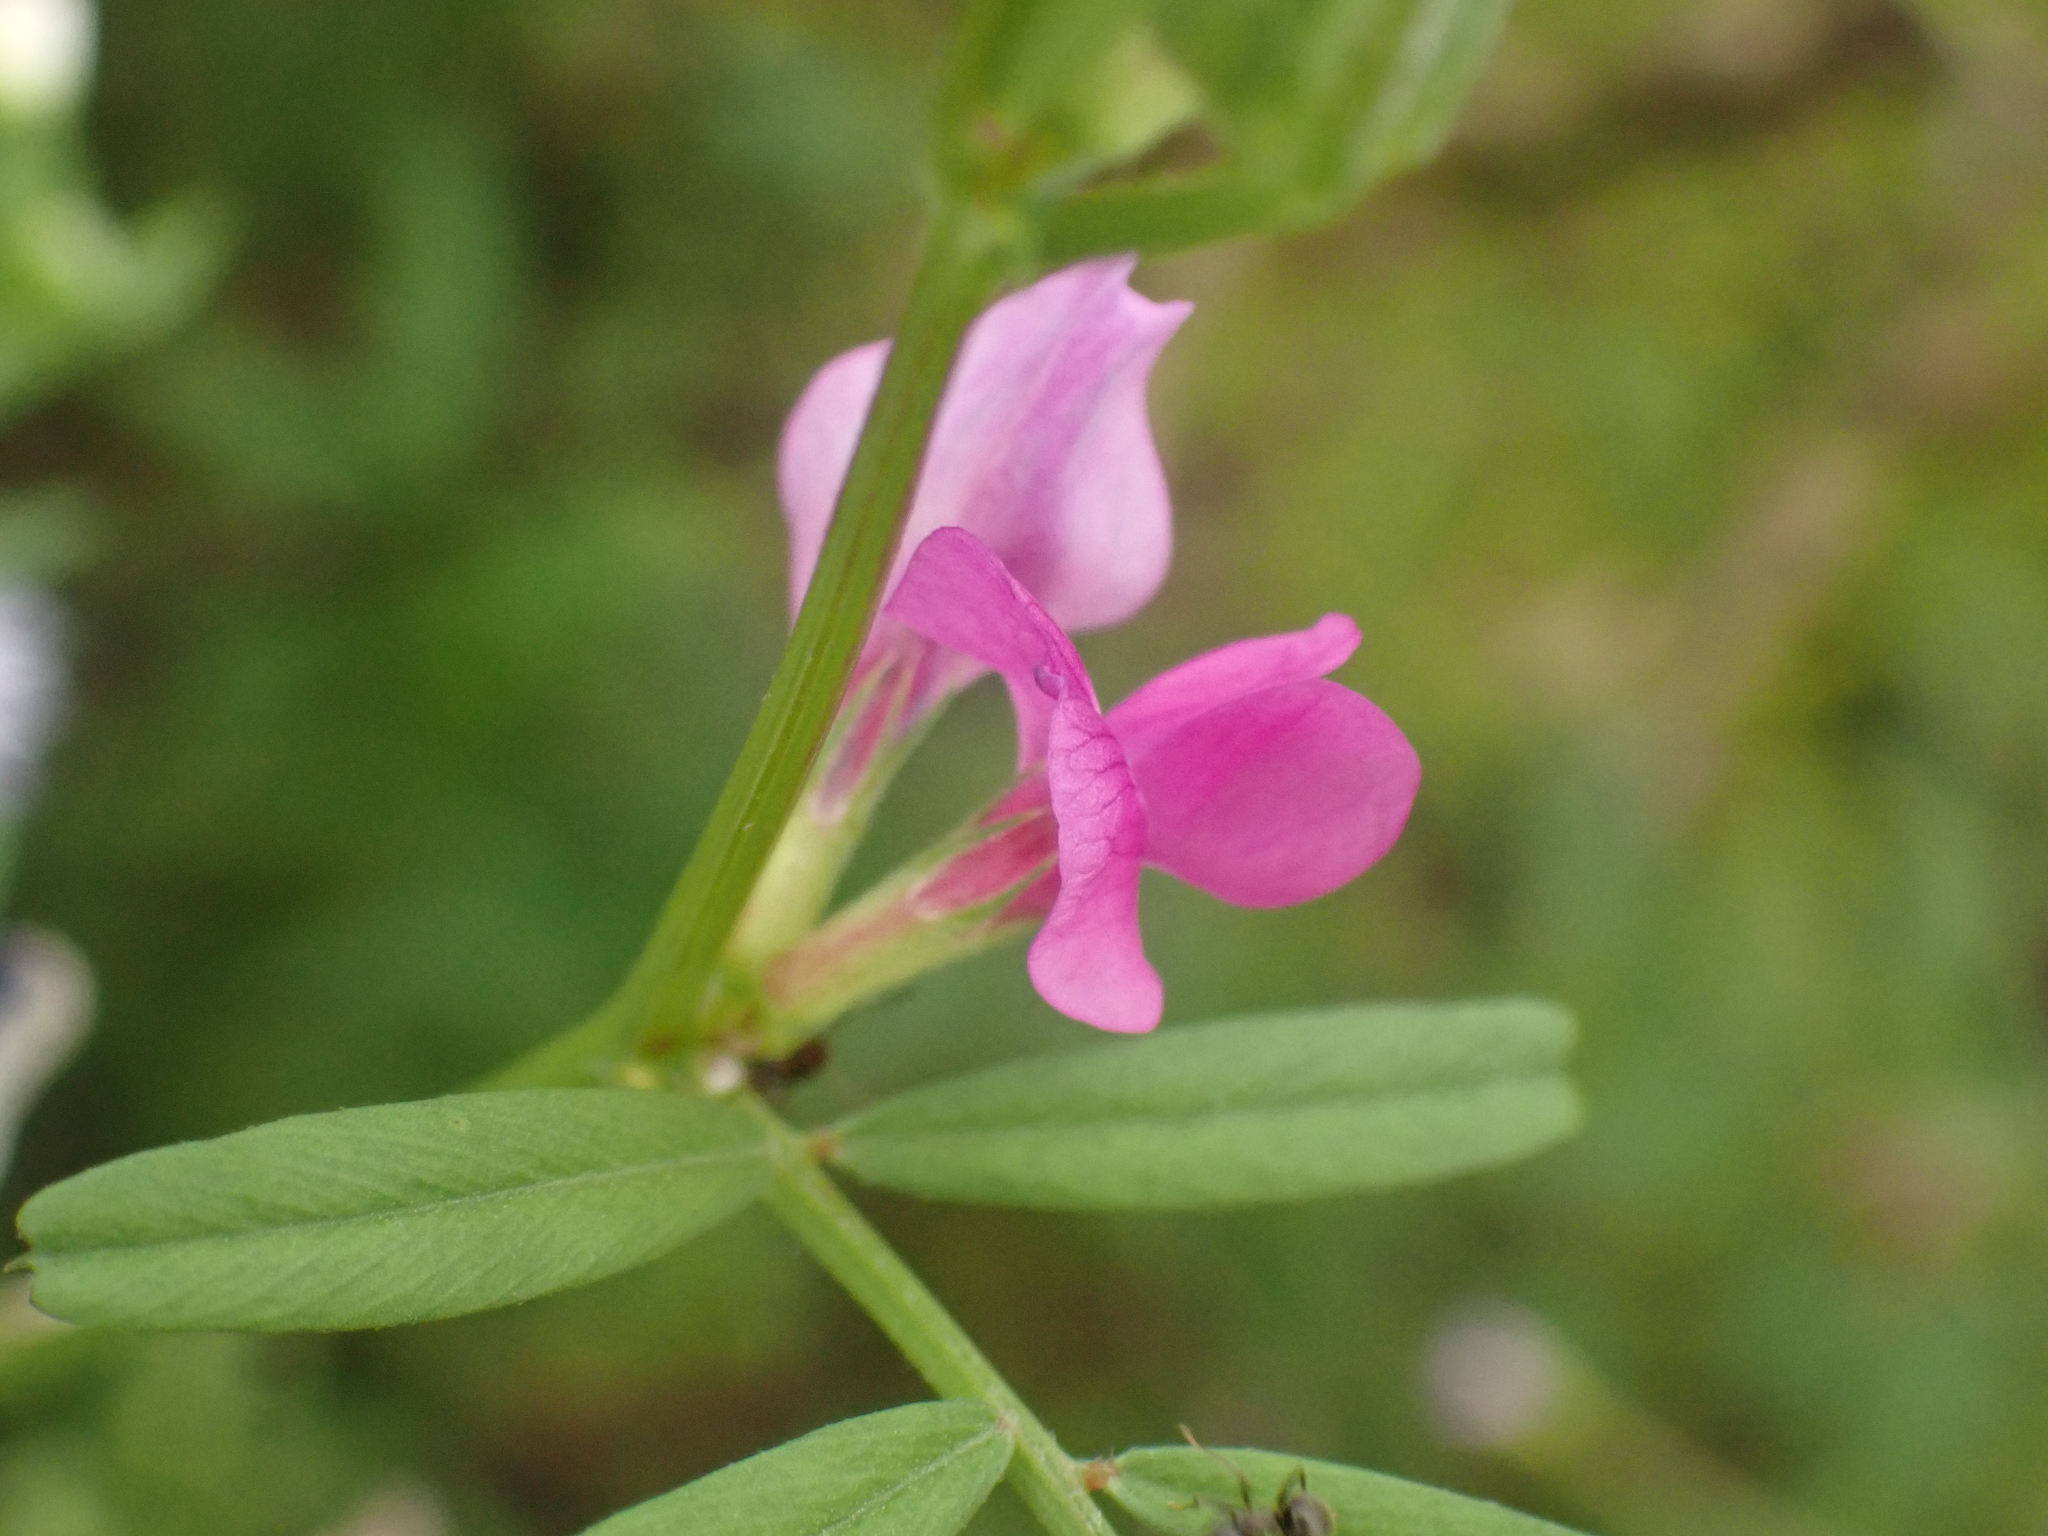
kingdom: Plantae
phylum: Tracheophyta
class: Magnoliopsida
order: Fabales
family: Fabaceae
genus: Vicia
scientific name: Vicia sativa
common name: Garden vetch
